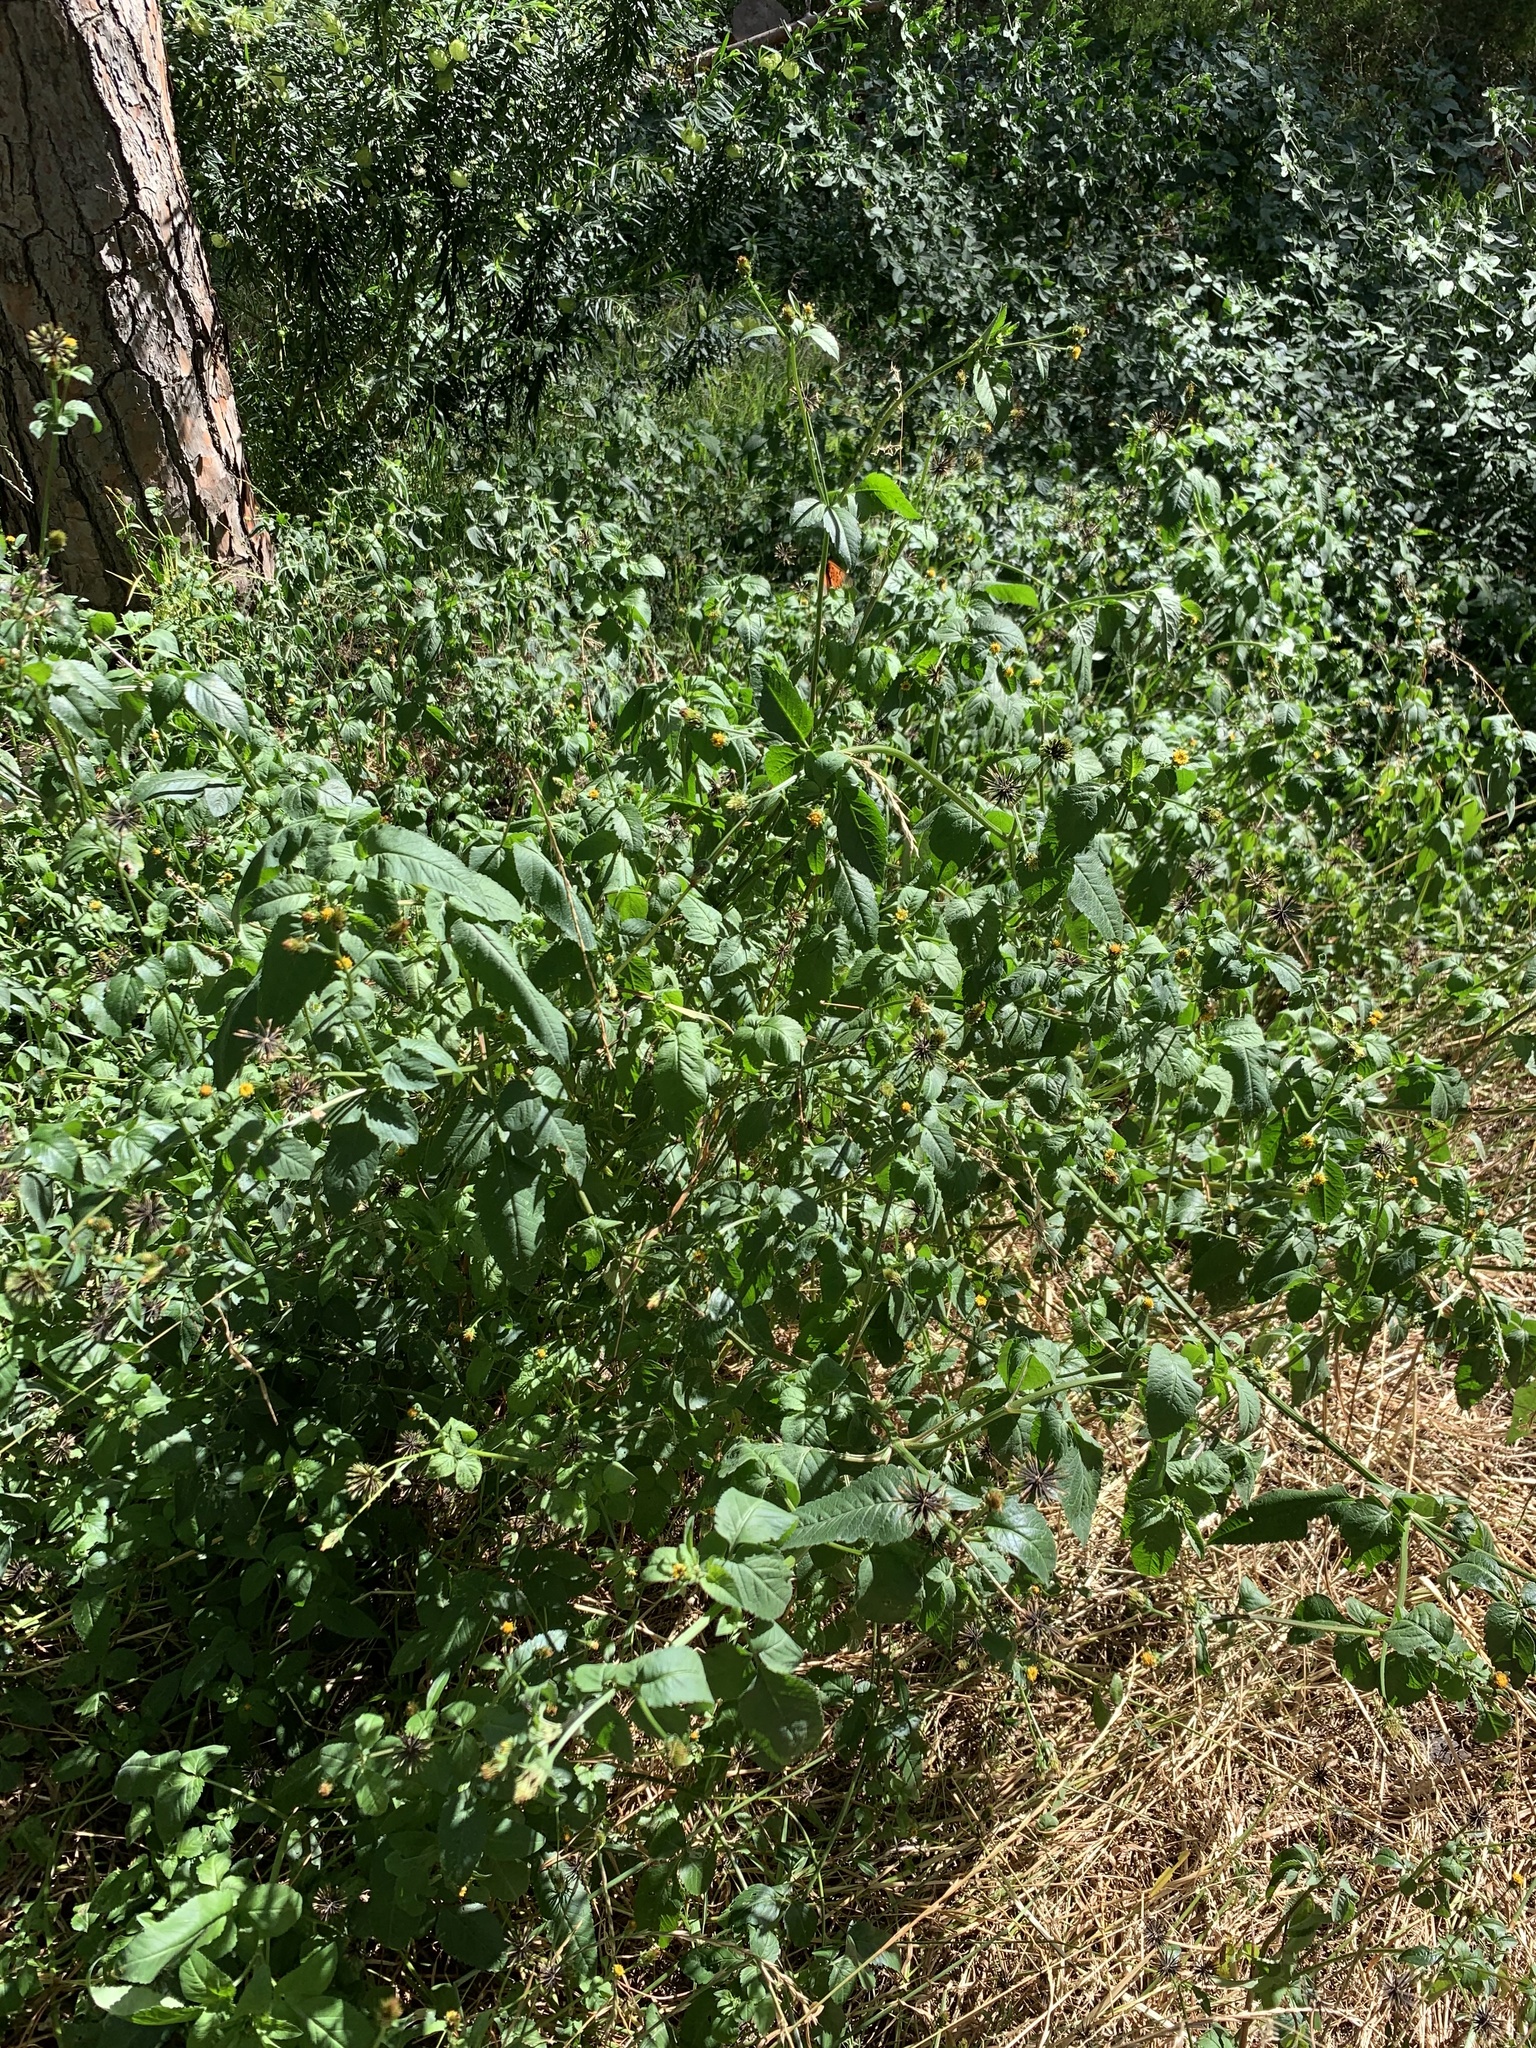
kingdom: Plantae
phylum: Tracheophyta
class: Magnoliopsida
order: Solanales
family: Solanaceae
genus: Solanum
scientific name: Solanum nigrum
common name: Black nightshade
